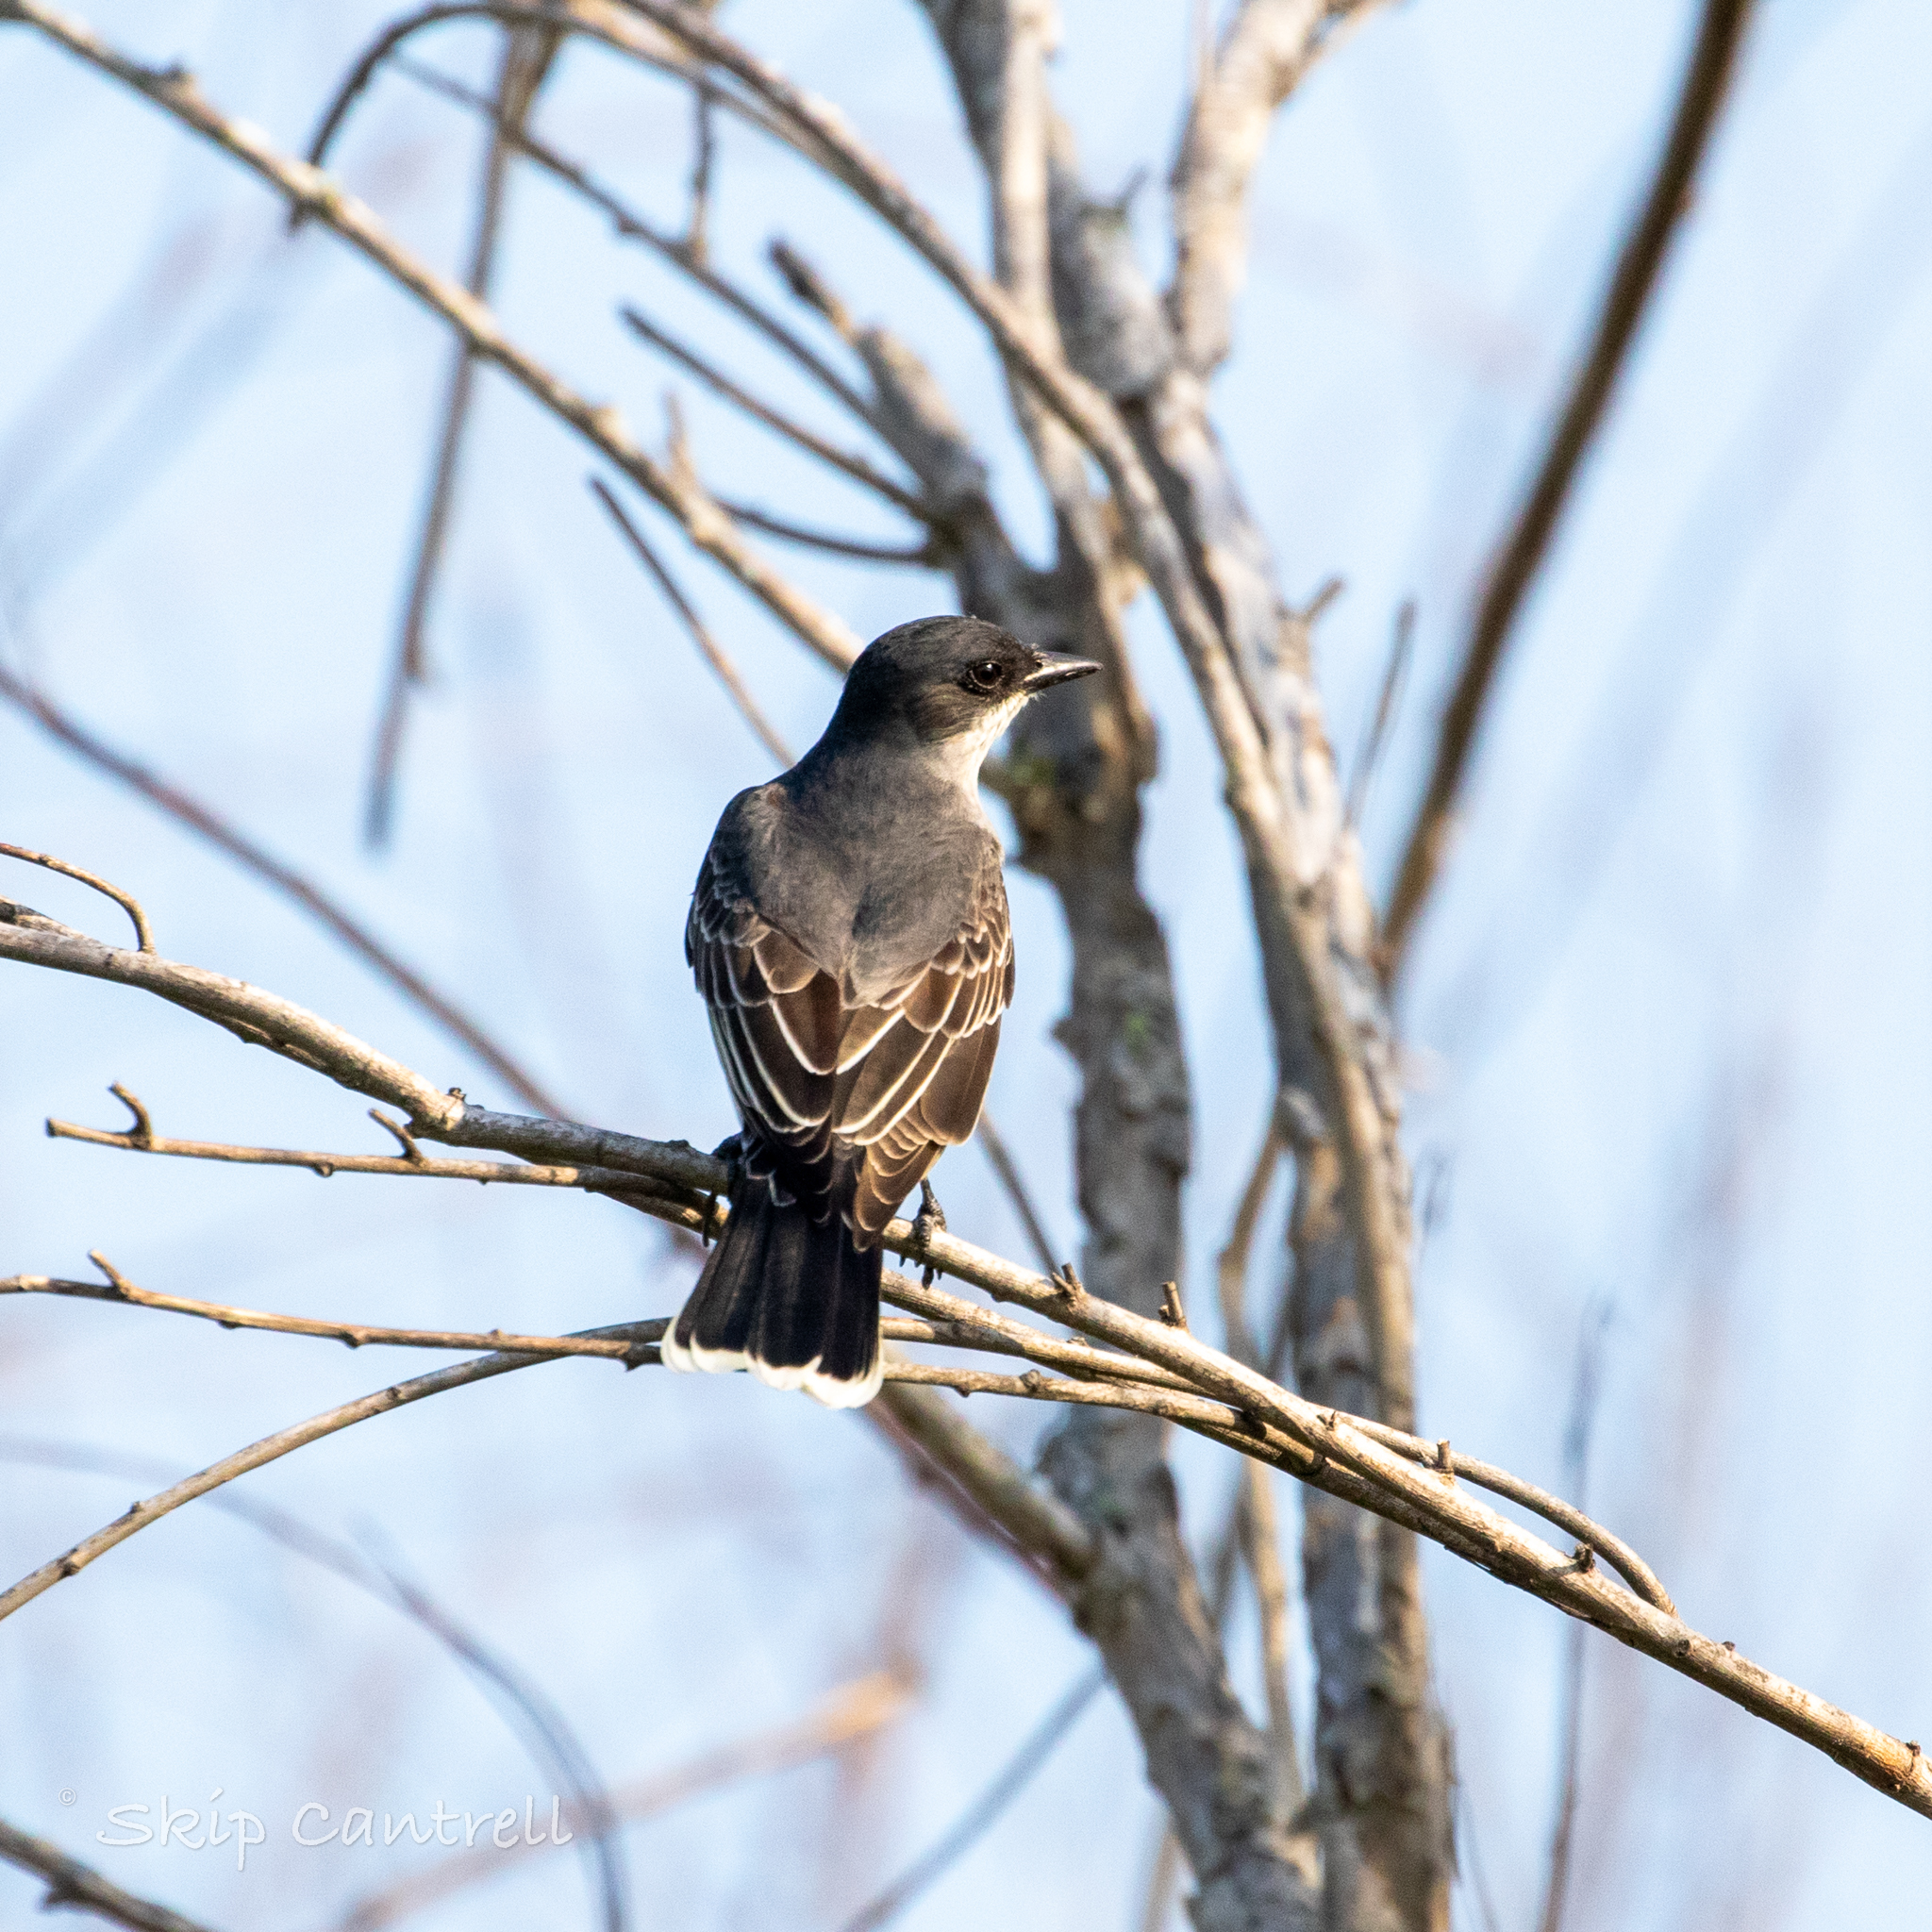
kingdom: Animalia
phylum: Chordata
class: Aves
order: Passeriformes
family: Tyrannidae
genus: Tyrannus
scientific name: Tyrannus tyrannus
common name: Eastern kingbird
